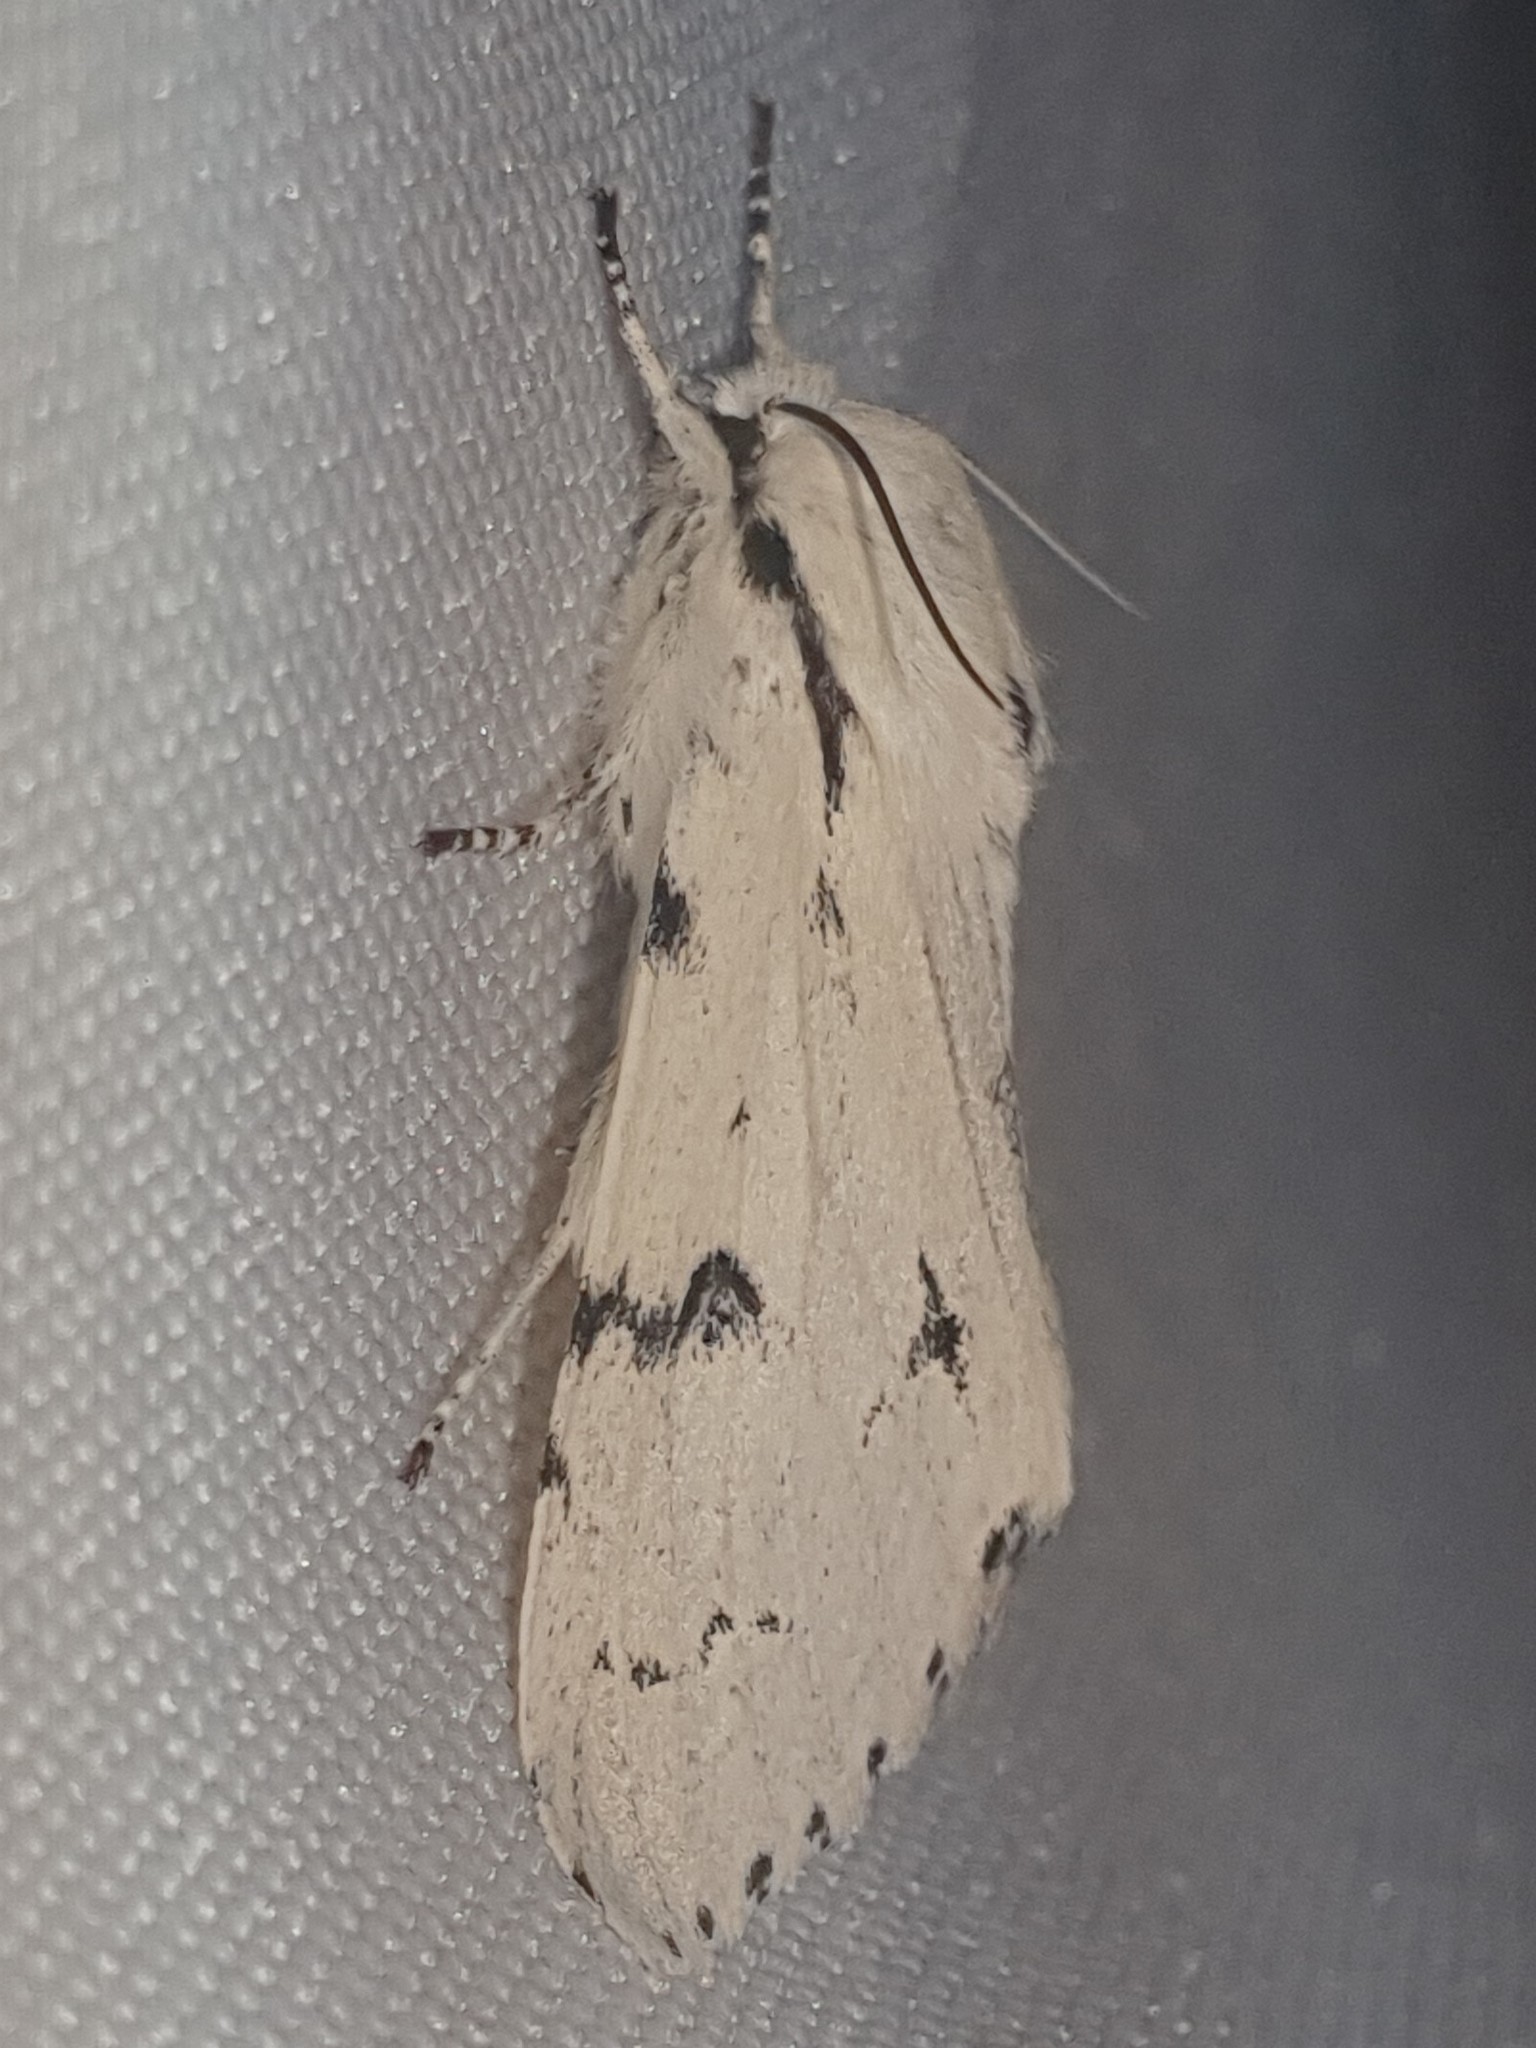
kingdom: Animalia
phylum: Arthropoda
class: Insecta
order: Lepidoptera
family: Noctuidae
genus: Acronicta
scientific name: Acronicta leporina
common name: Miller
